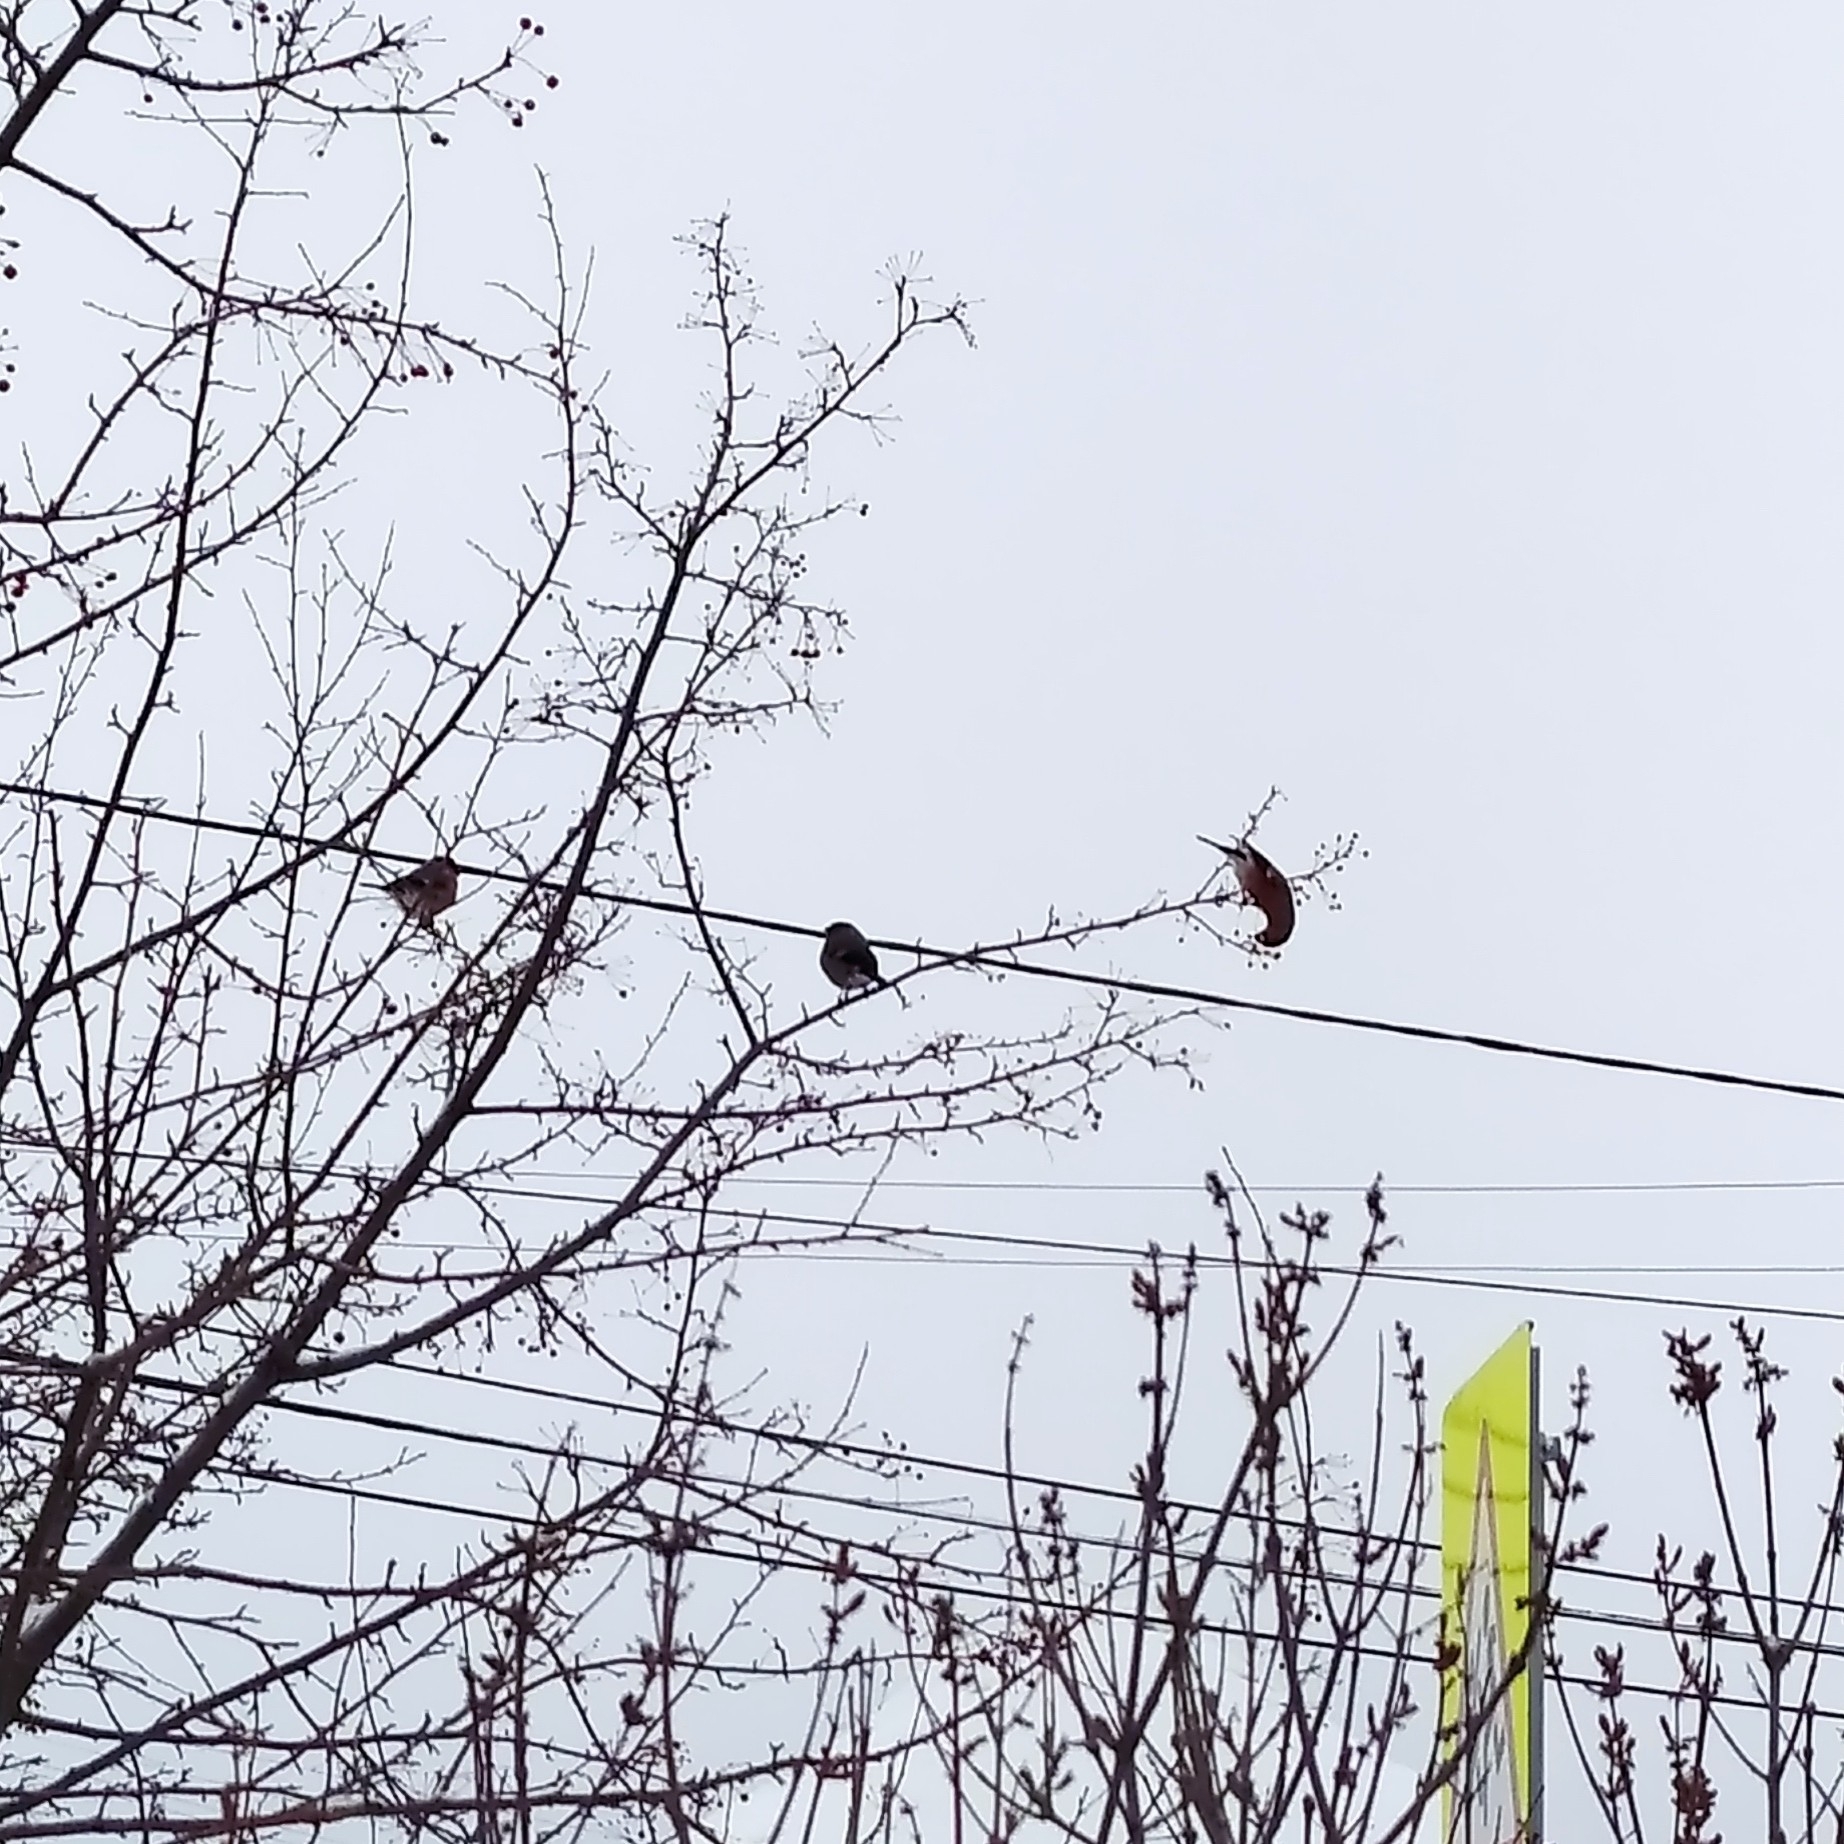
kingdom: Animalia
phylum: Chordata
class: Aves
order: Passeriformes
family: Fringillidae
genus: Pyrrhula
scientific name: Pyrrhula pyrrhula
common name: Eurasian bullfinch
